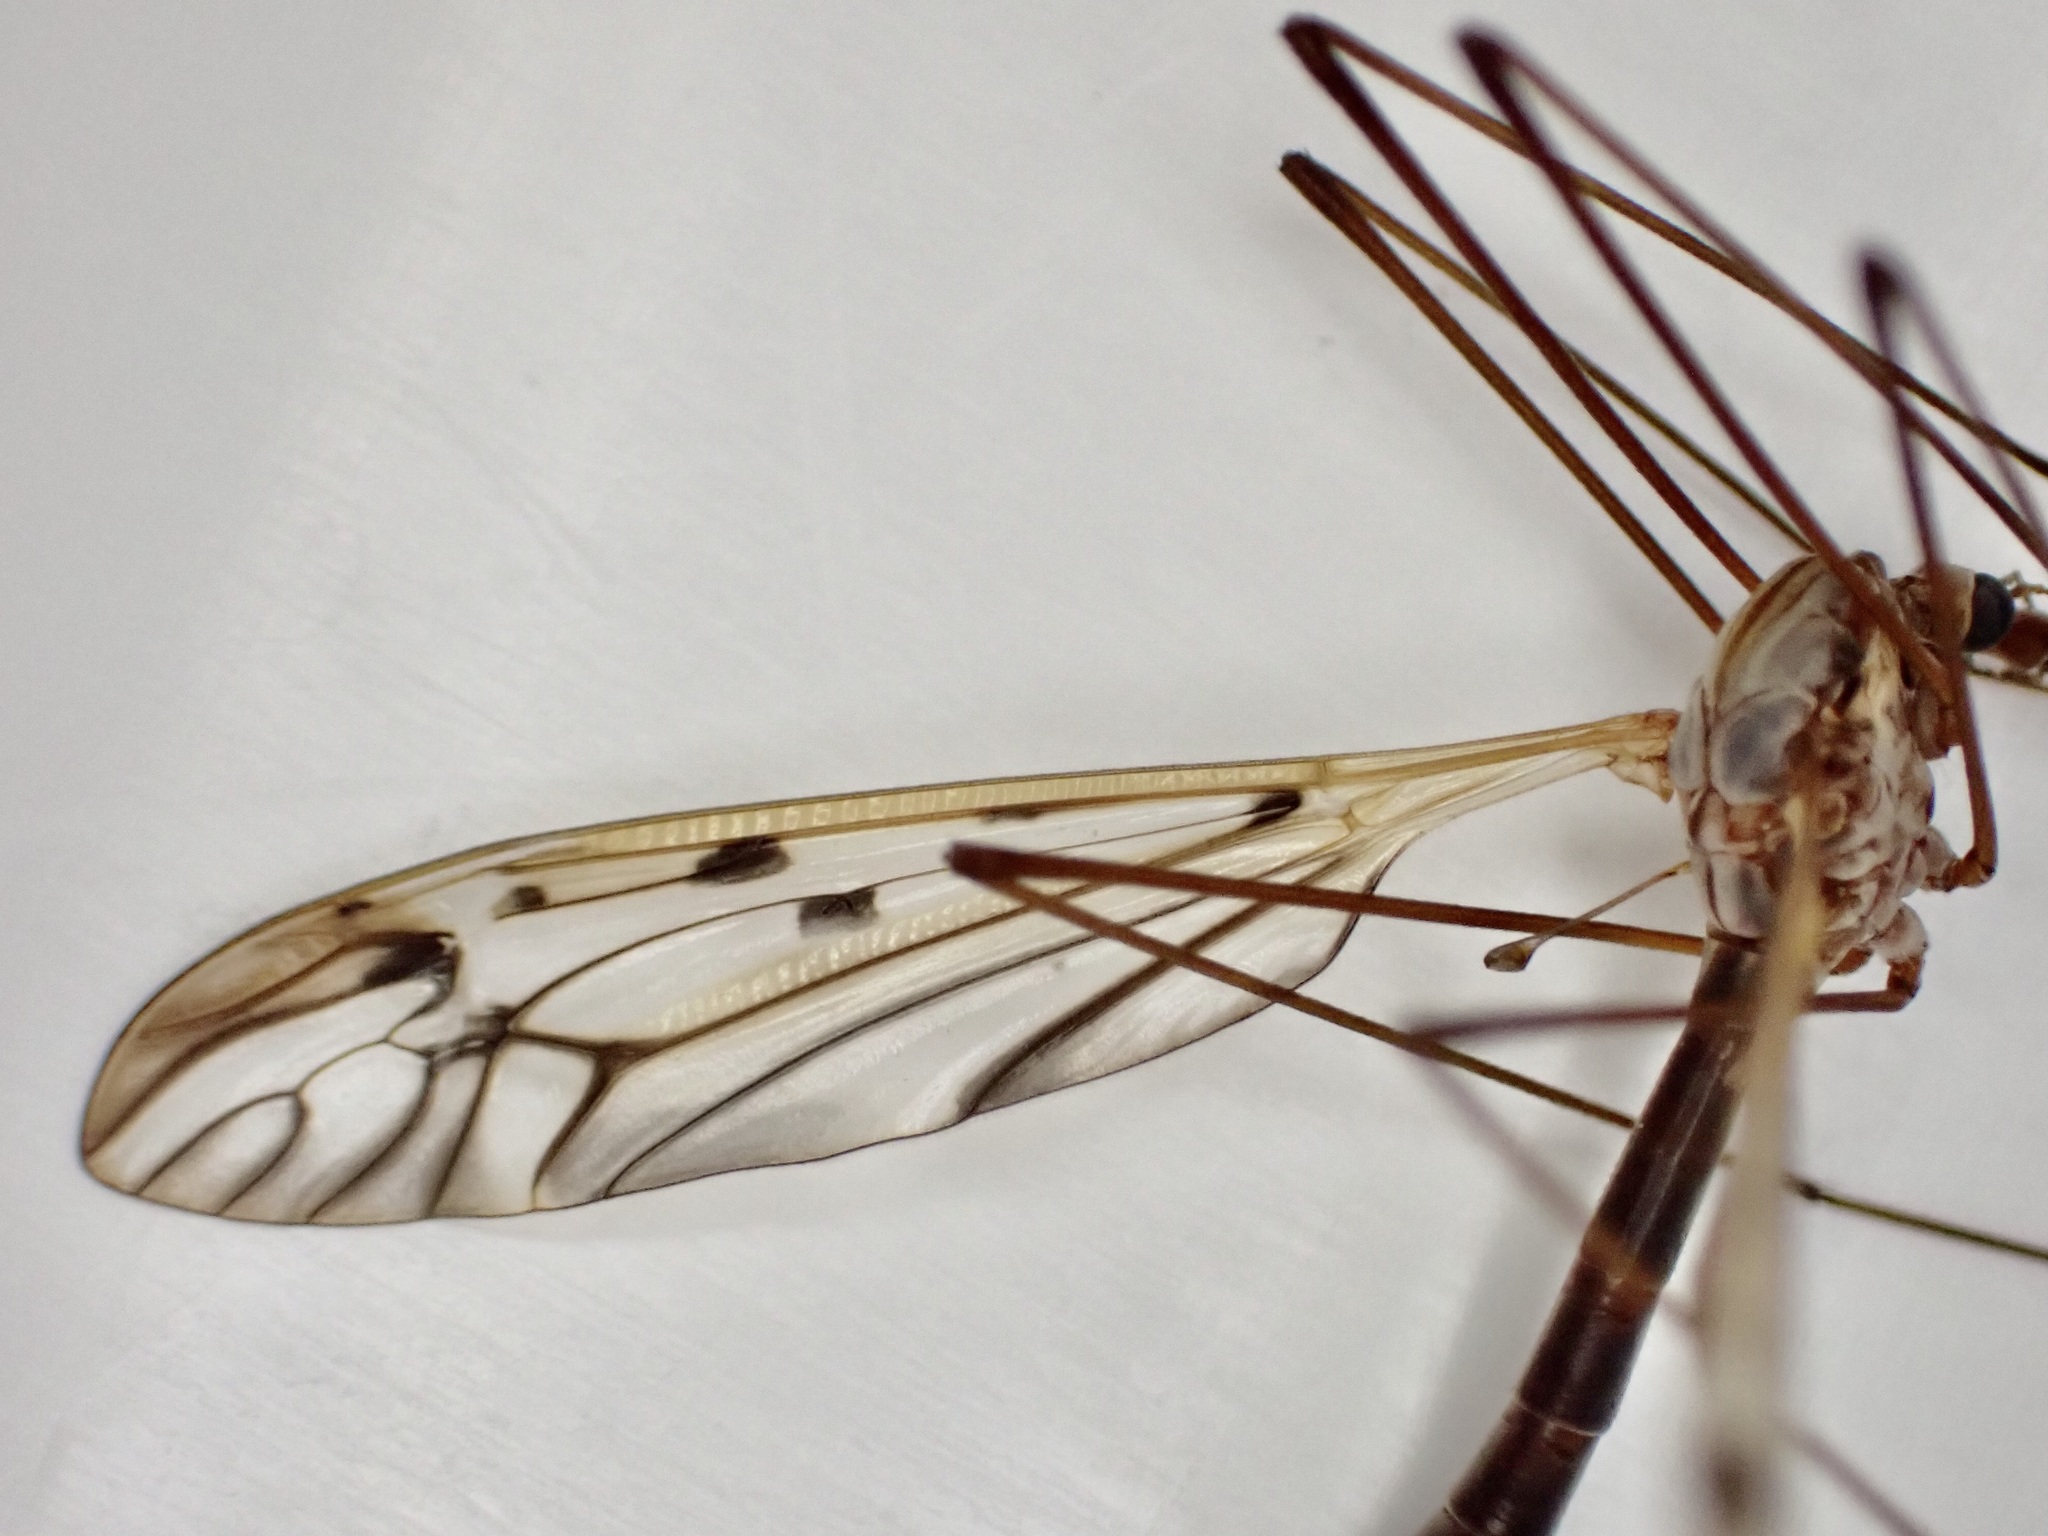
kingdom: Animalia
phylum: Arthropoda
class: Insecta
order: Diptera
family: Tipulidae
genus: Zelandotipula
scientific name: Zelandotipula novarae
